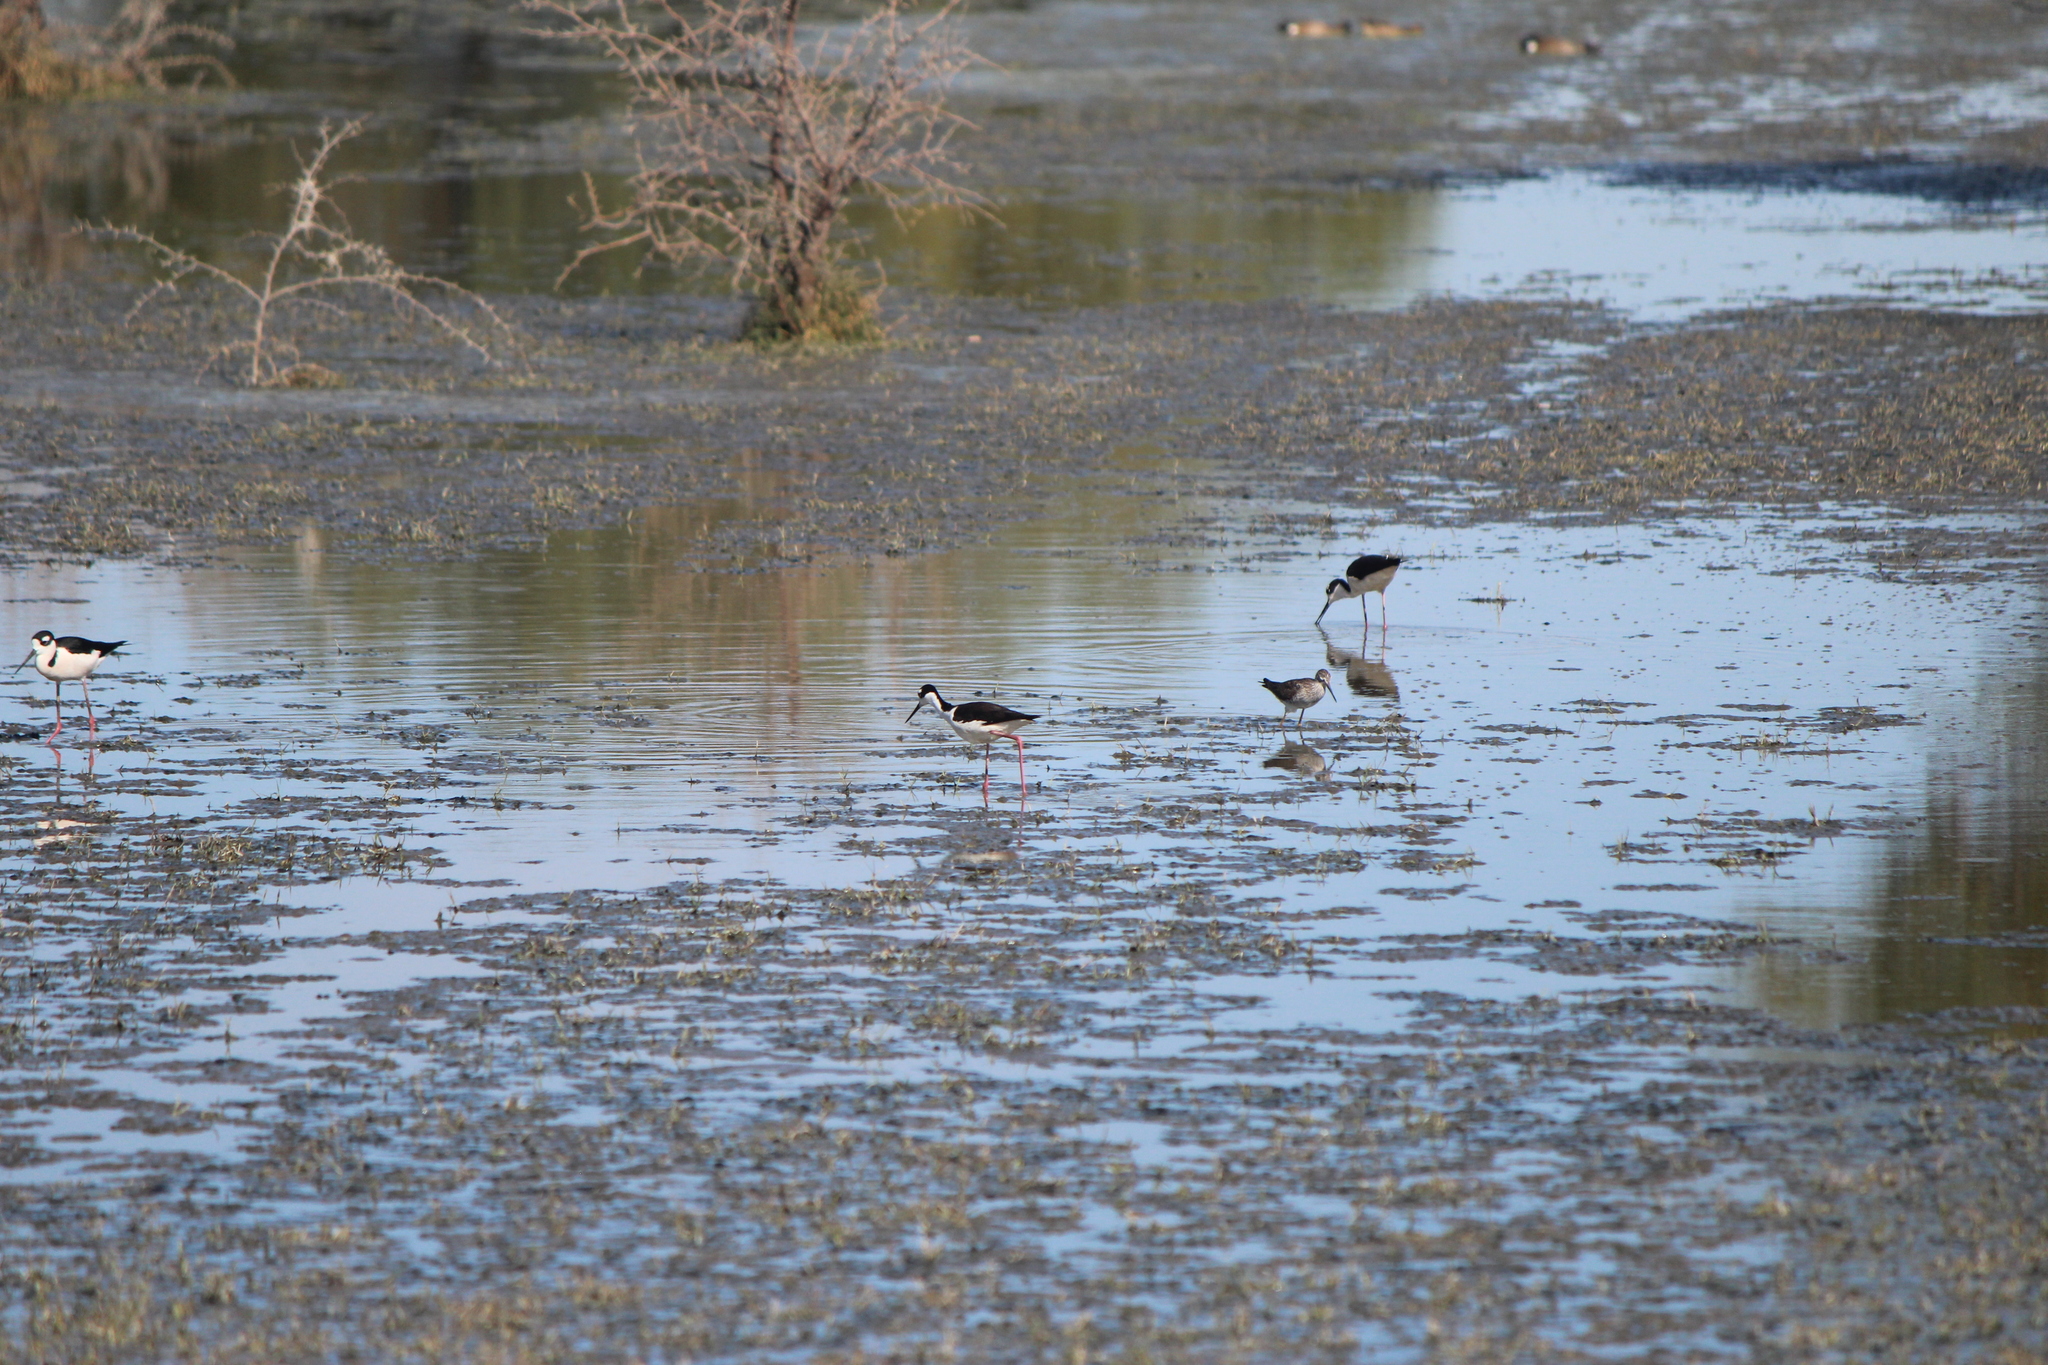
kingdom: Animalia
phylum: Chordata
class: Aves
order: Charadriiformes
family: Recurvirostridae
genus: Himantopus
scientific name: Himantopus mexicanus
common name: Black-necked stilt
